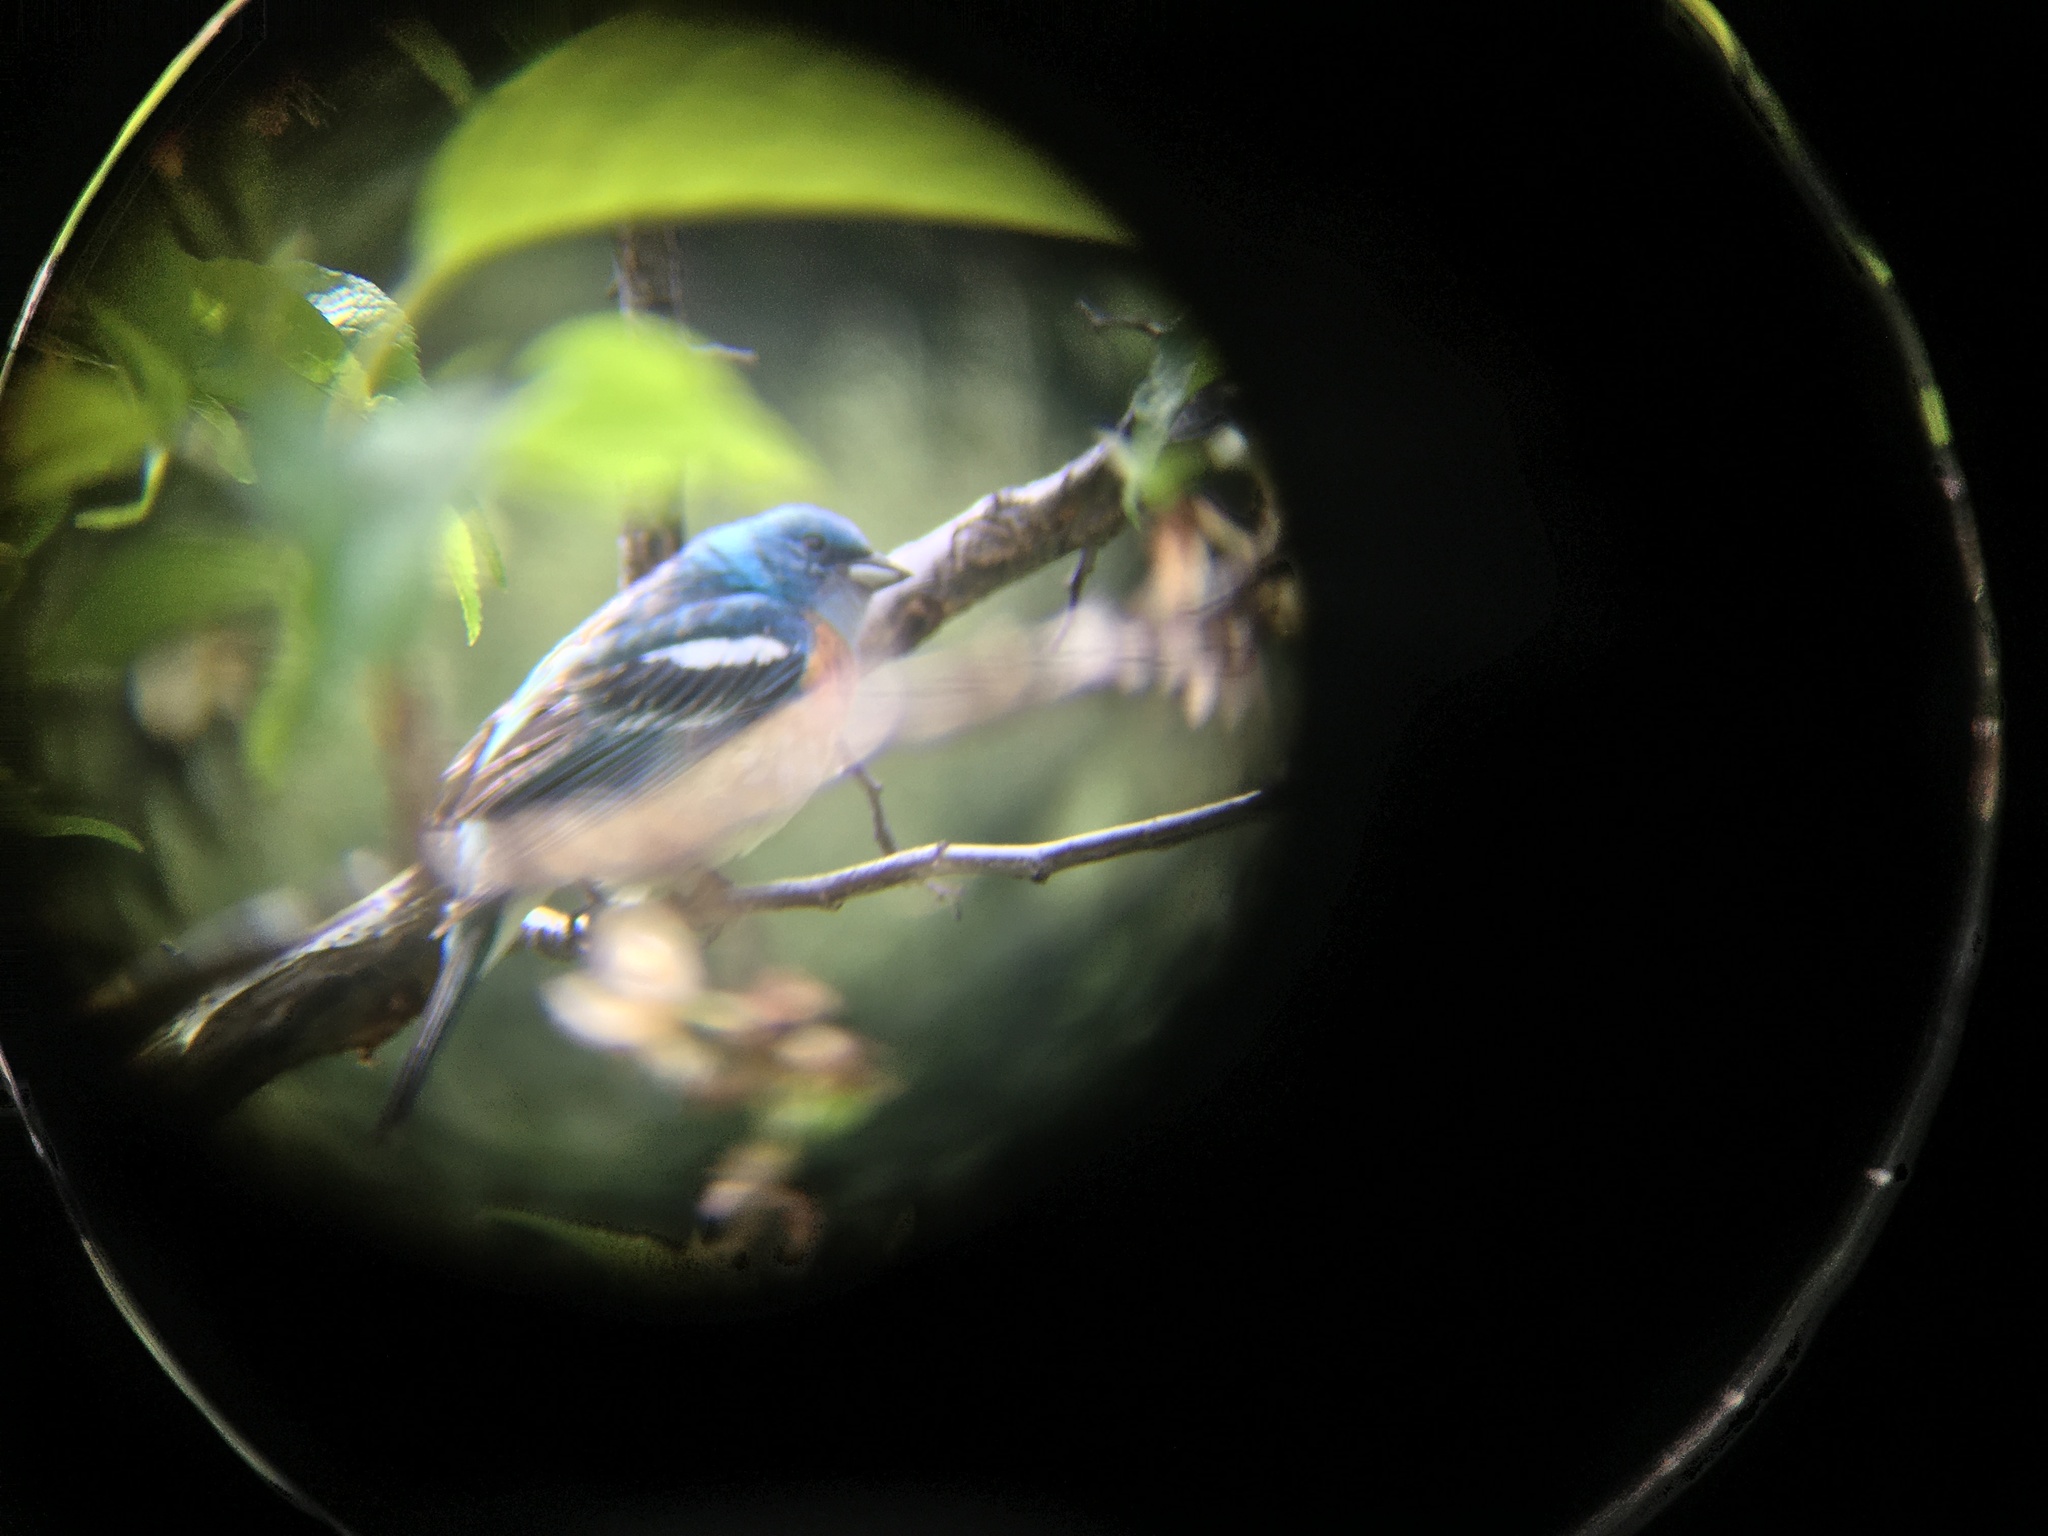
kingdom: Animalia
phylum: Chordata
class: Aves
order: Passeriformes
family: Cardinalidae
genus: Passerina
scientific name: Passerina amoena
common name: Lazuli bunting
